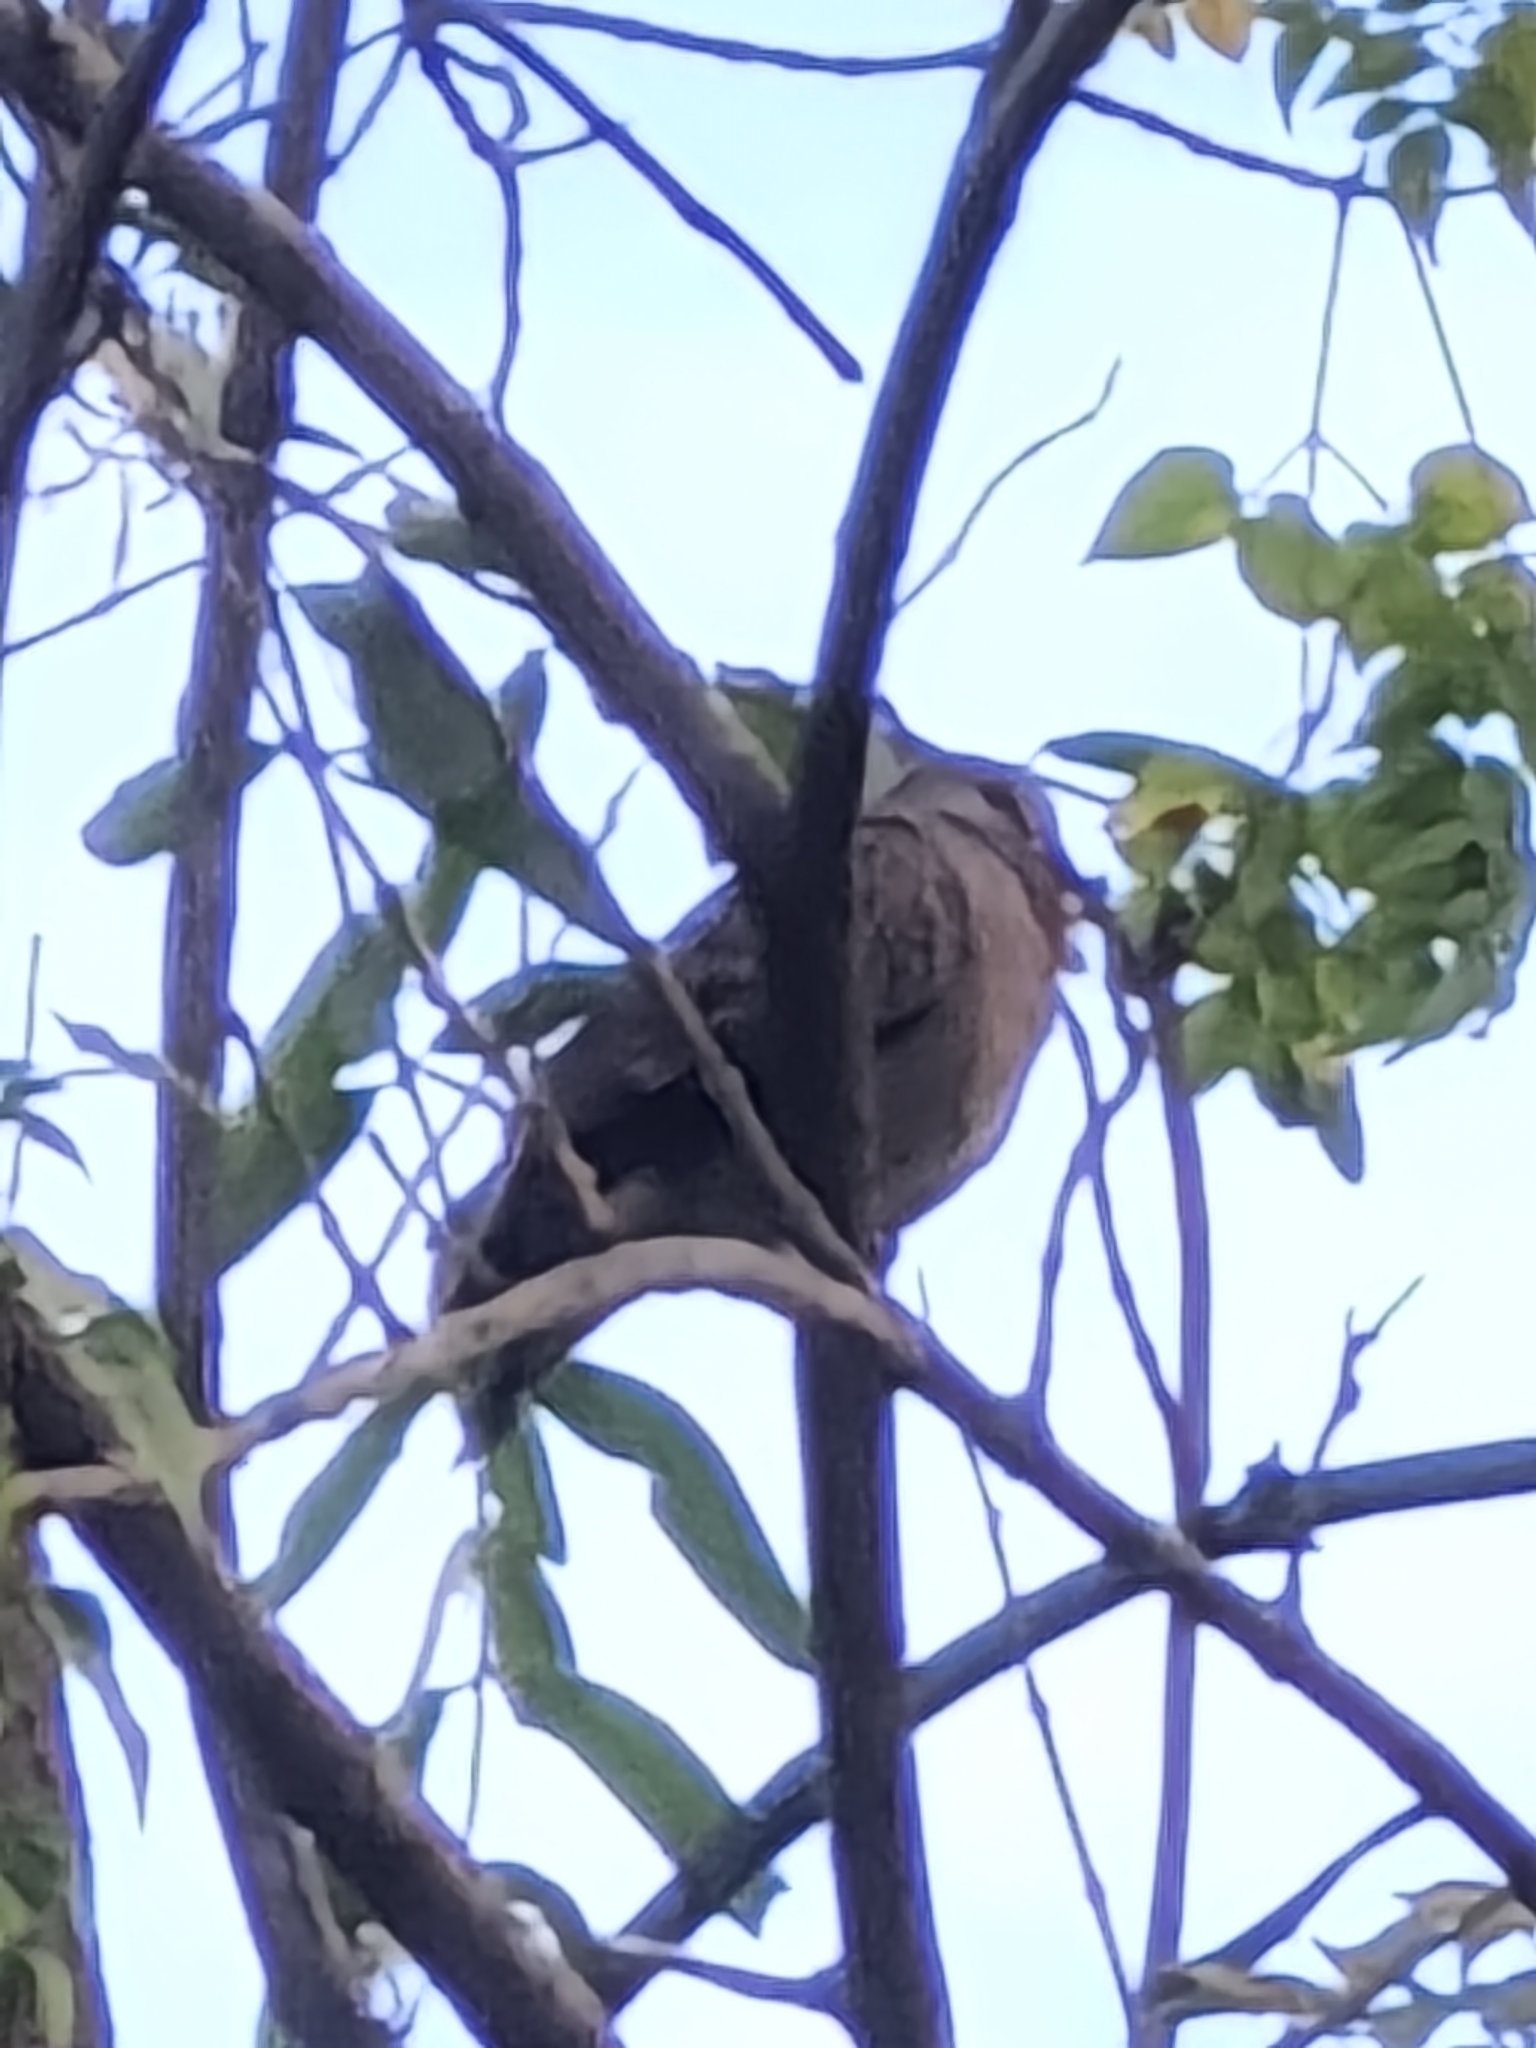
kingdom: Animalia
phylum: Chordata
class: Aves
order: Columbiformes
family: Columbidae
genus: Spilopelia
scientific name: Spilopelia chinensis
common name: Spotted dove
